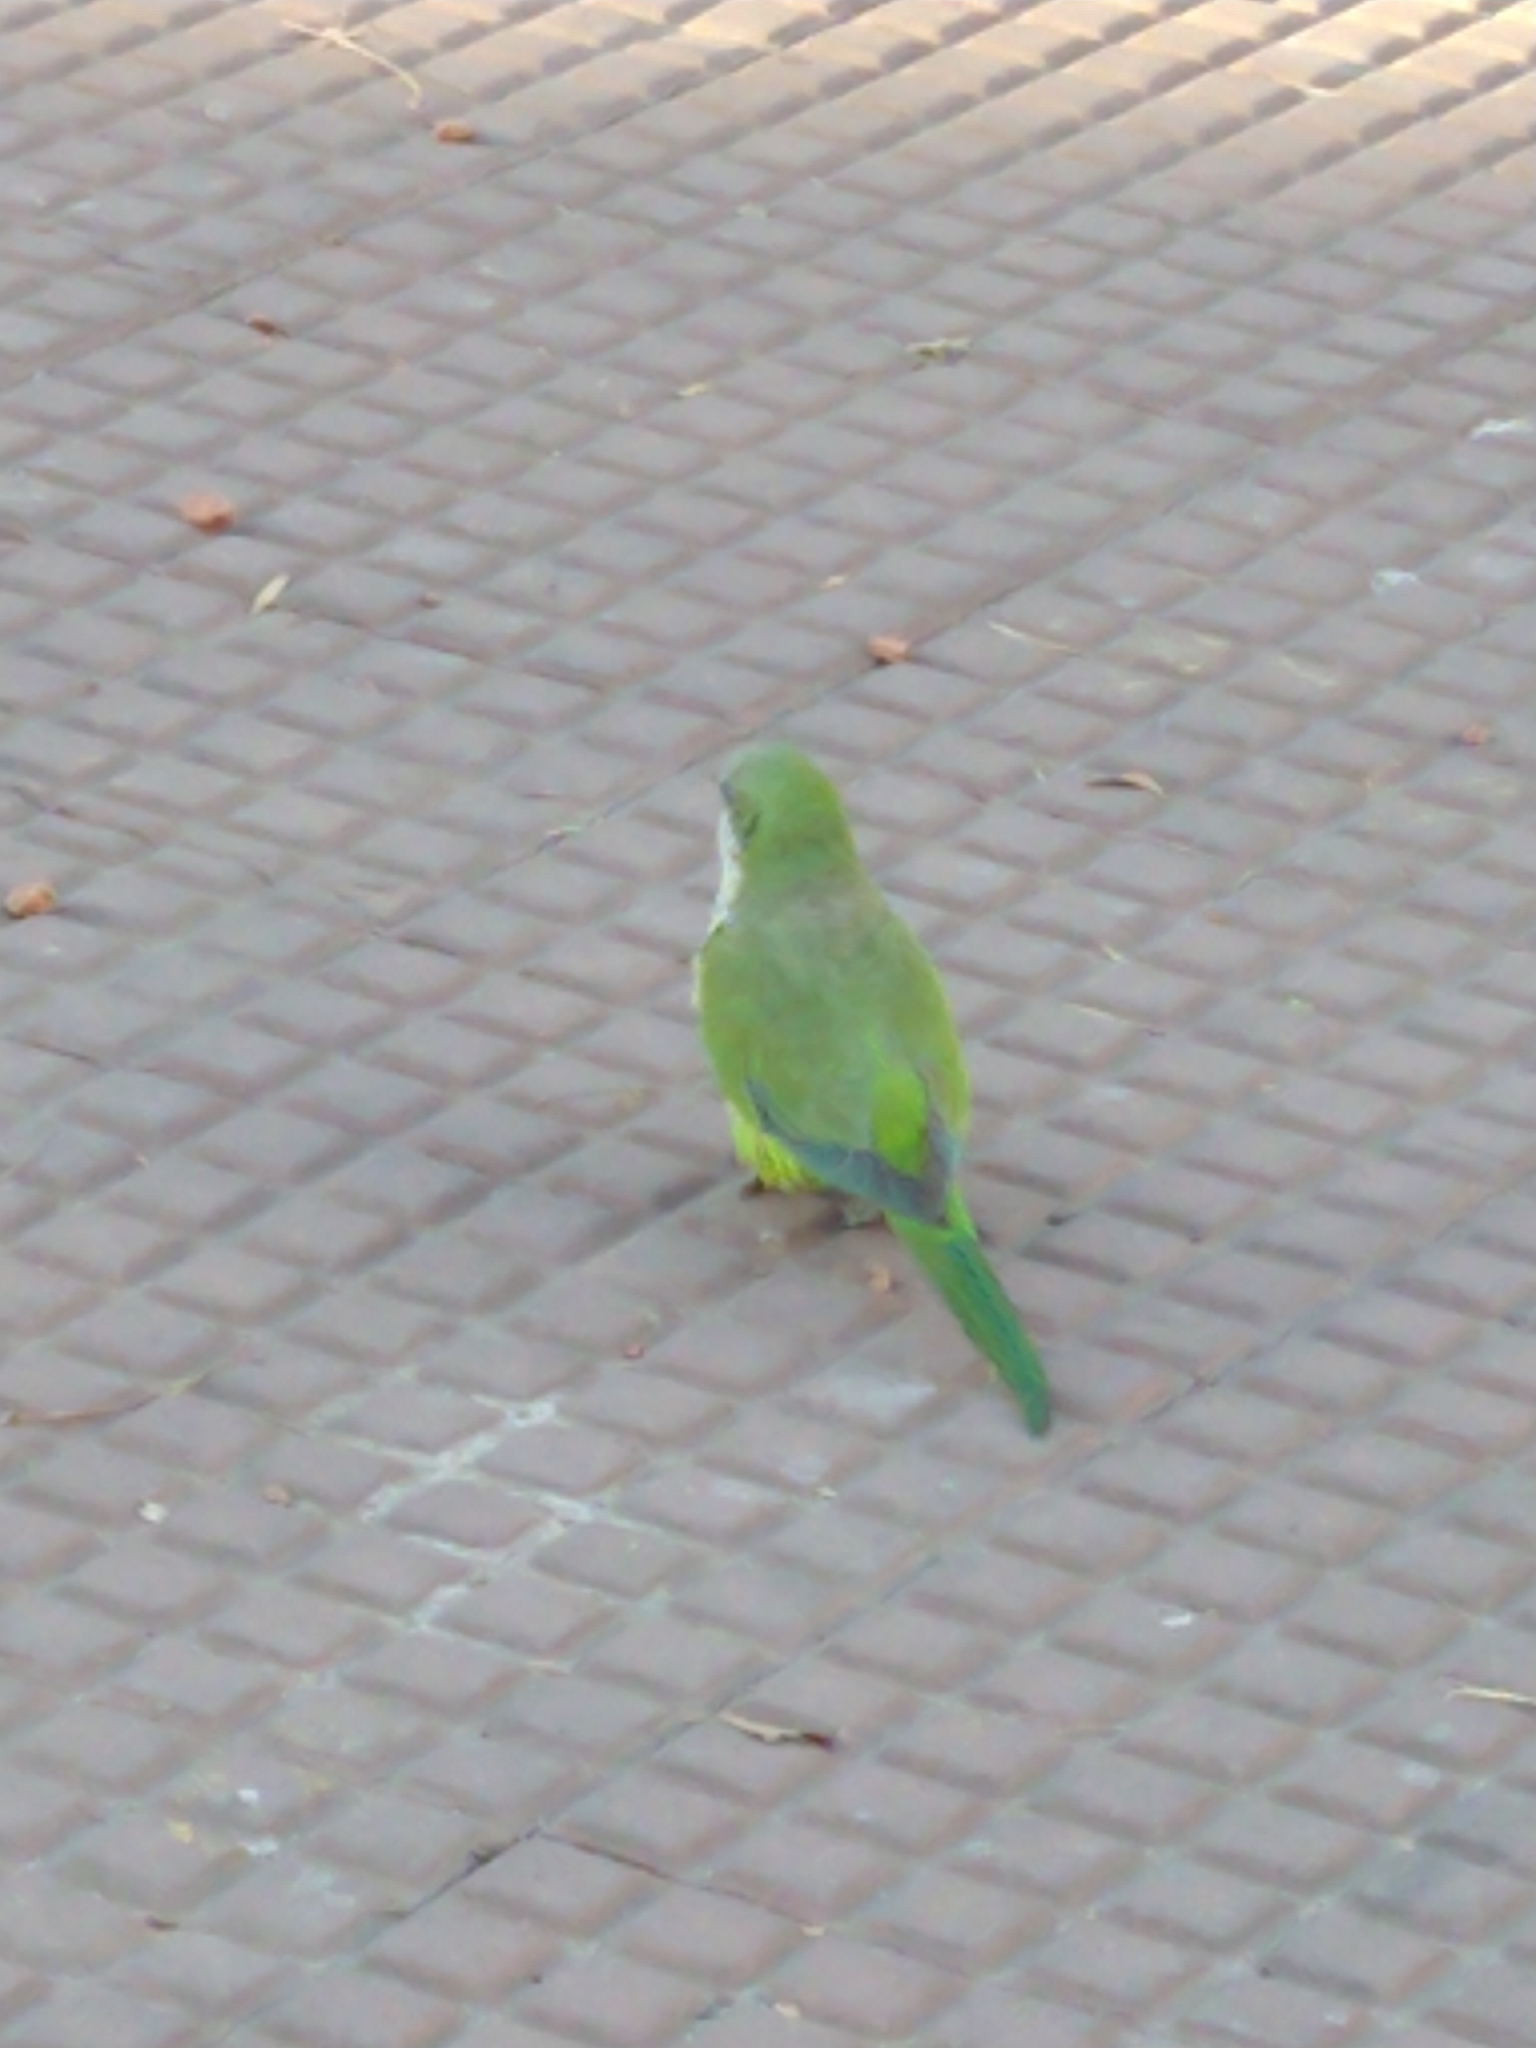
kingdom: Animalia
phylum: Chordata
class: Aves
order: Psittaciformes
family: Psittacidae
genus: Myiopsitta
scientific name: Myiopsitta monachus
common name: Monk parakeet
